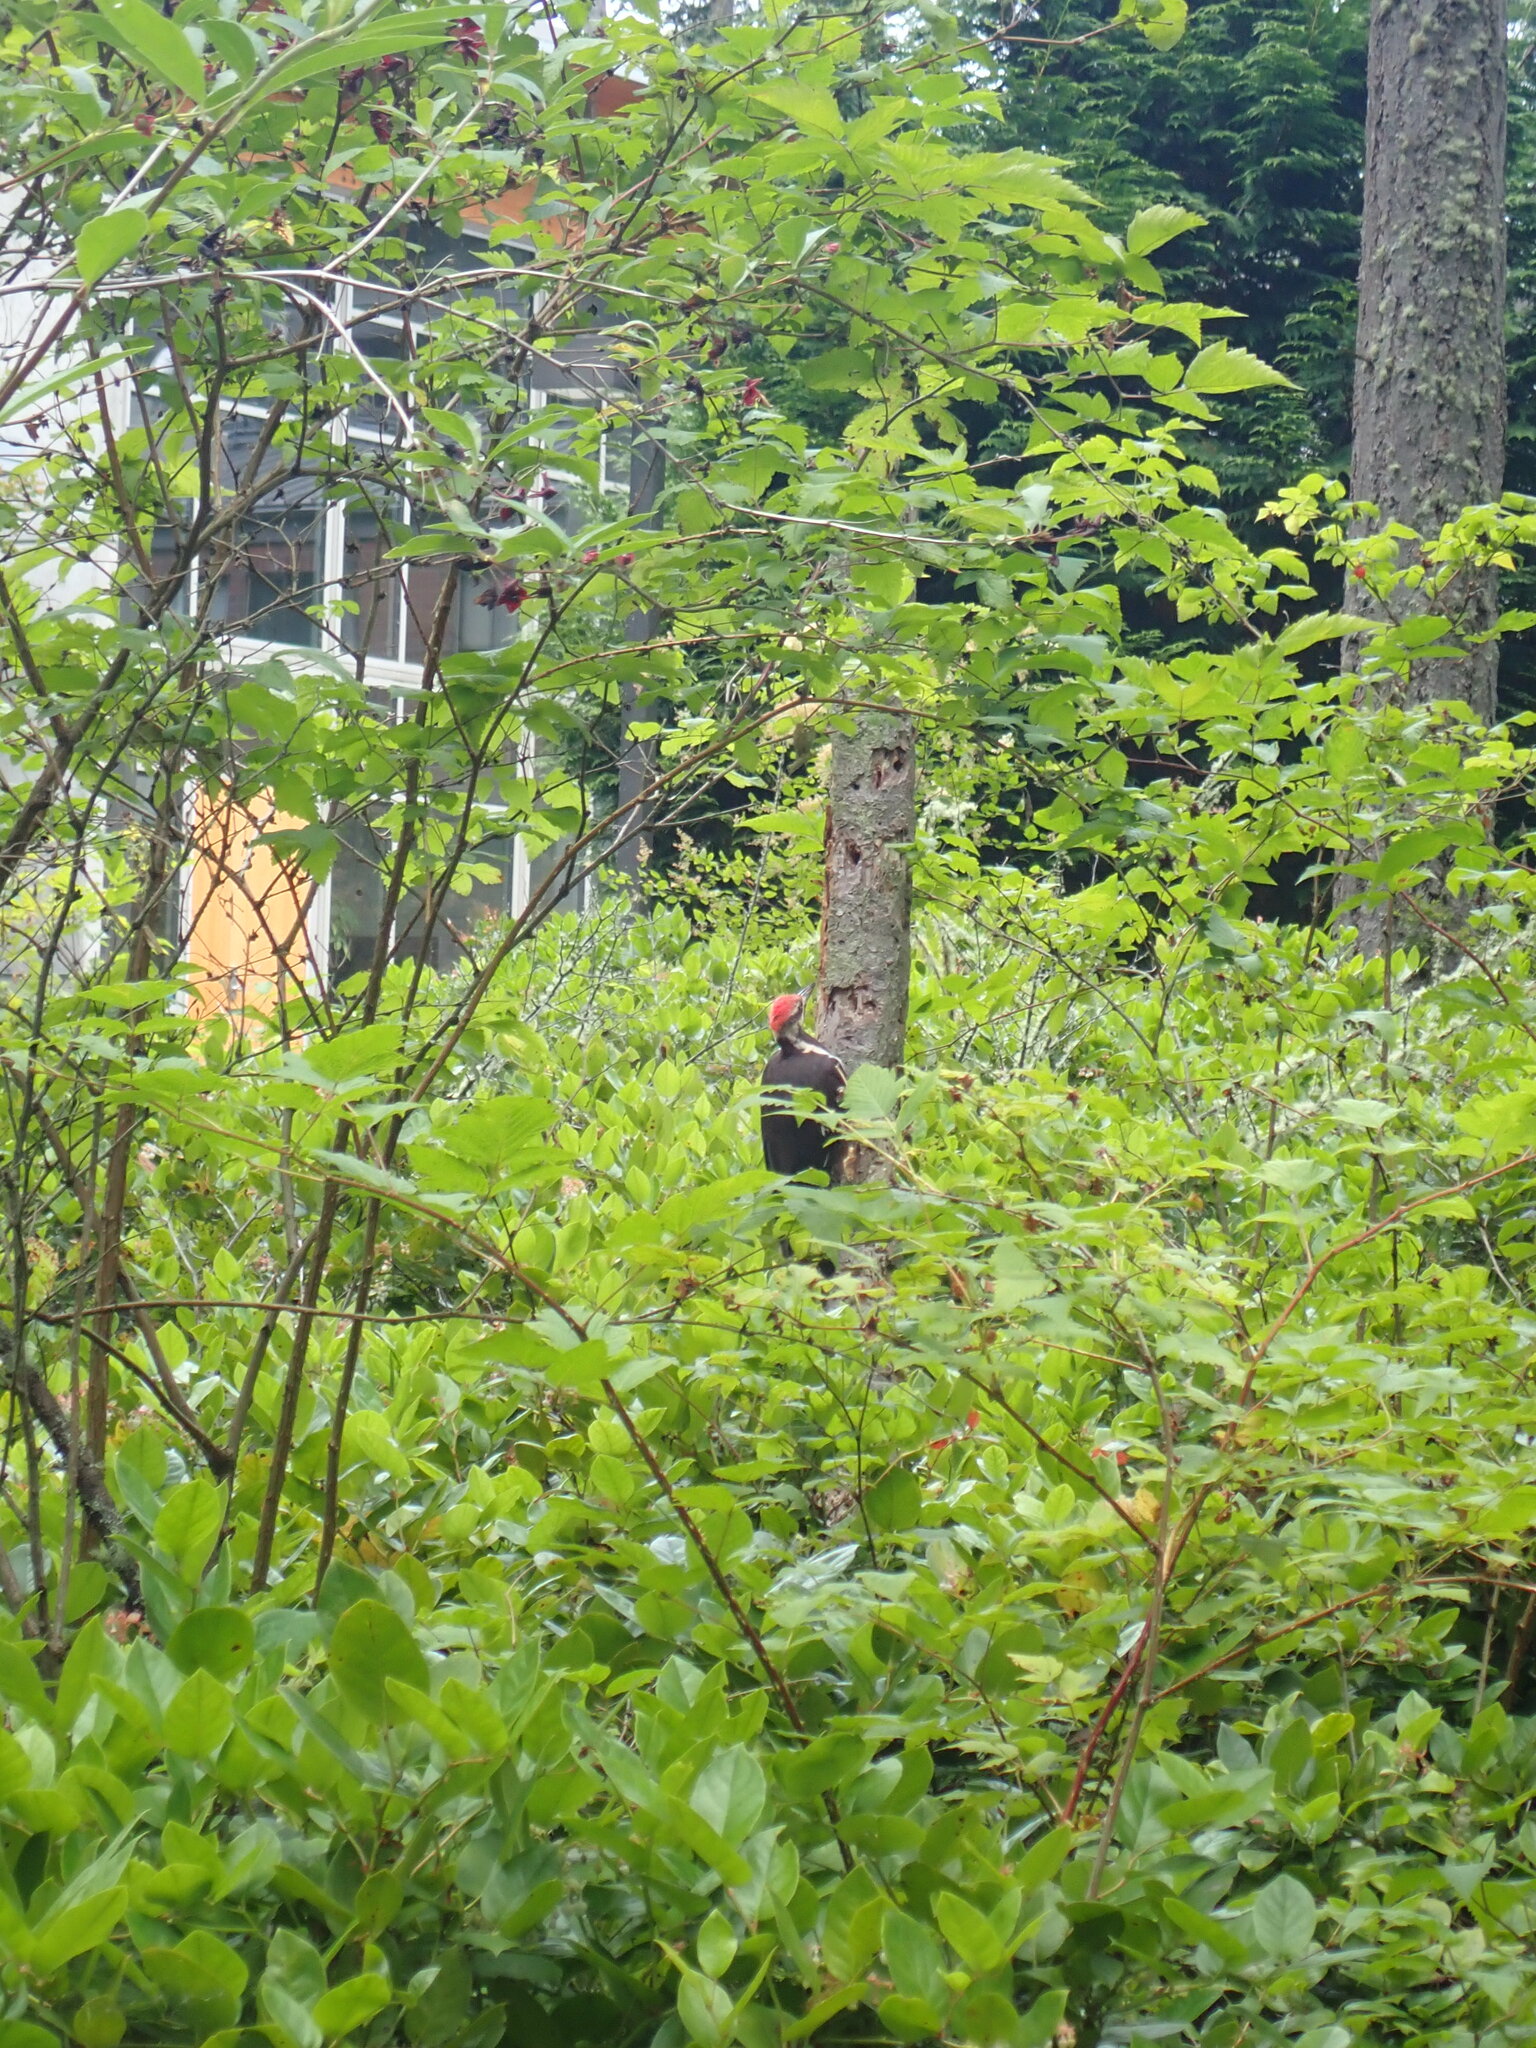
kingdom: Animalia
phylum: Chordata
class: Aves
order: Piciformes
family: Picidae
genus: Dryocopus
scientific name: Dryocopus pileatus
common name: Pileated woodpecker
